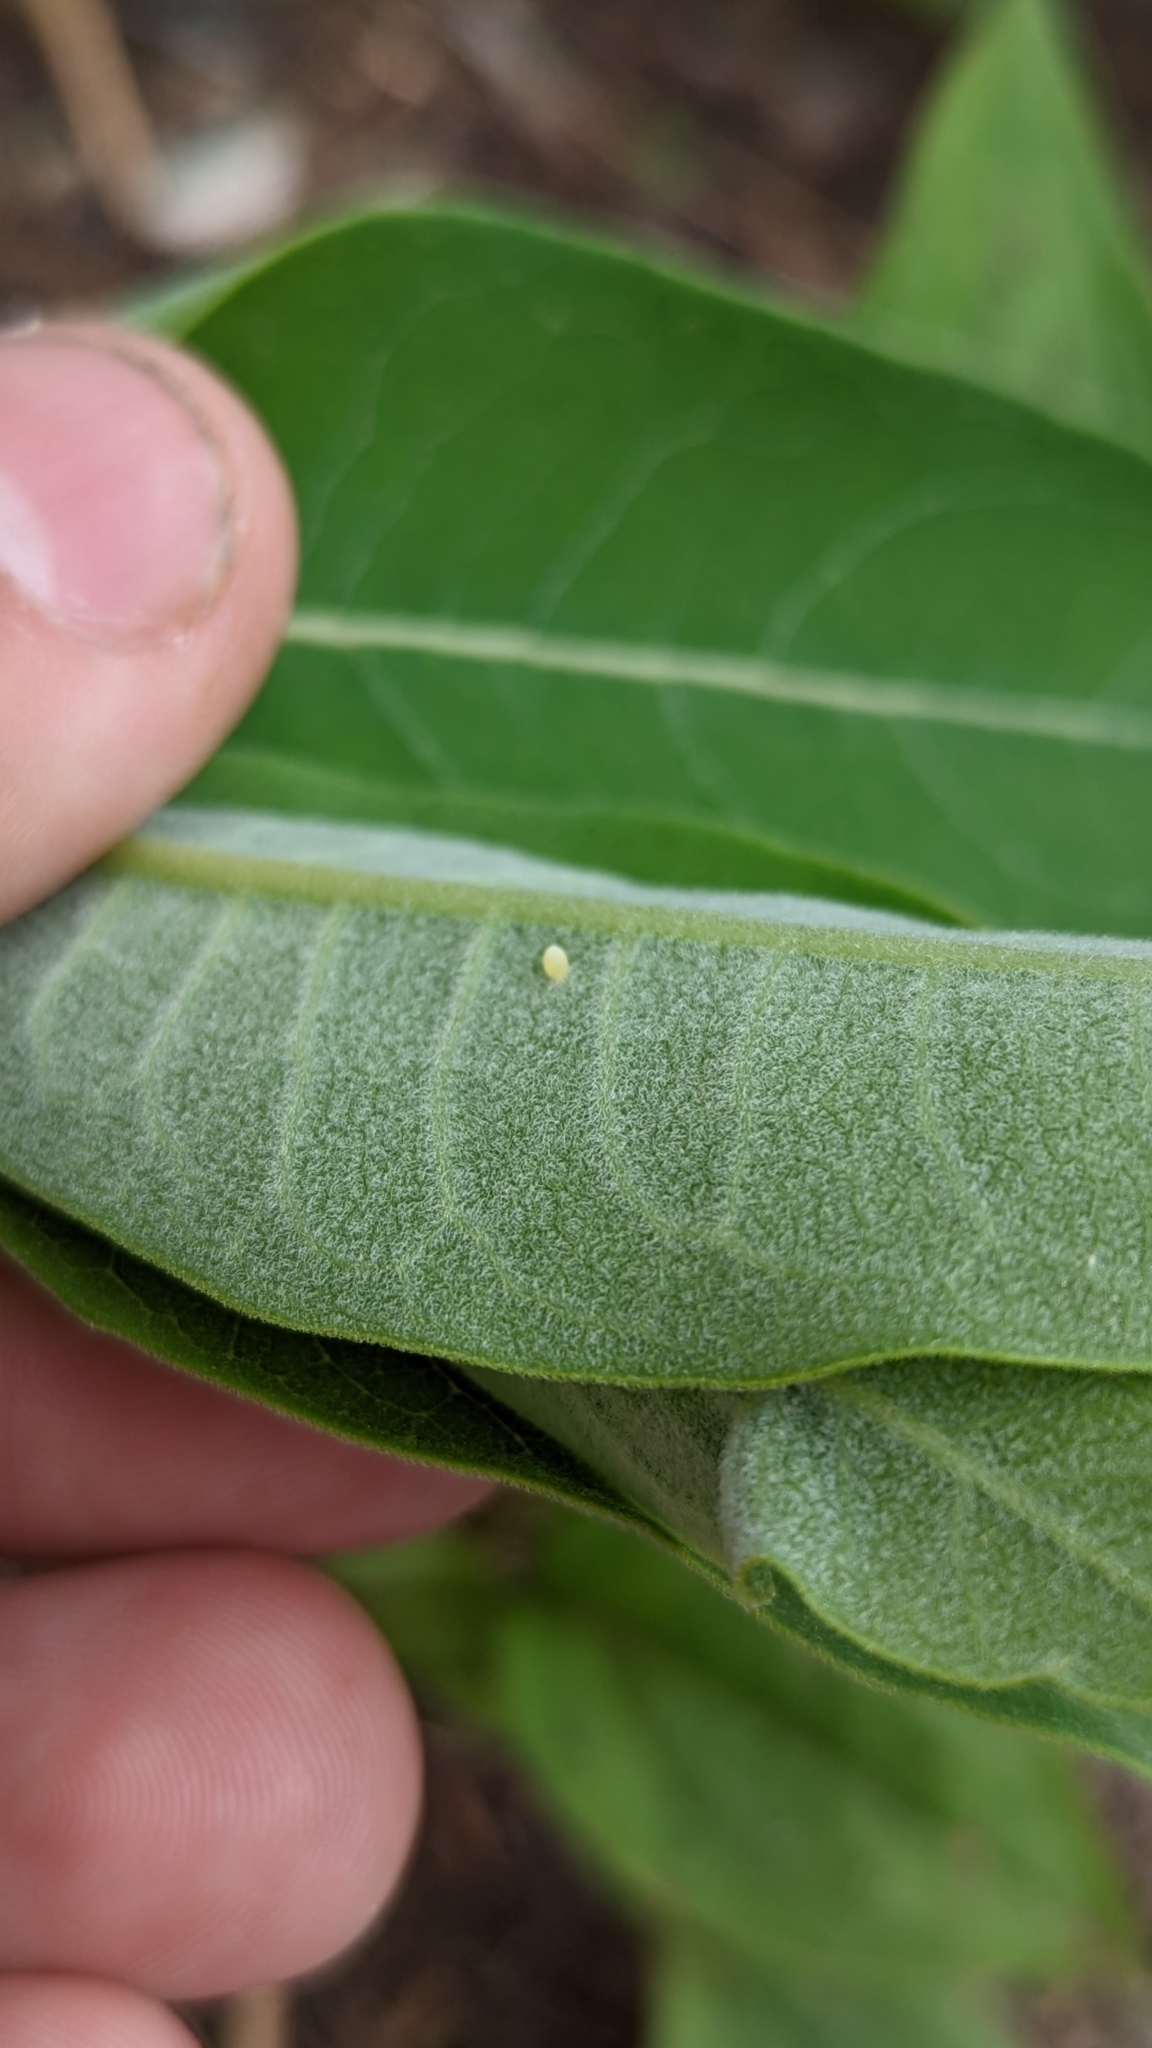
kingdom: Animalia
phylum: Arthropoda
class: Insecta
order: Lepidoptera
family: Nymphalidae
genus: Danaus
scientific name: Danaus plexippus
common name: Monarch
